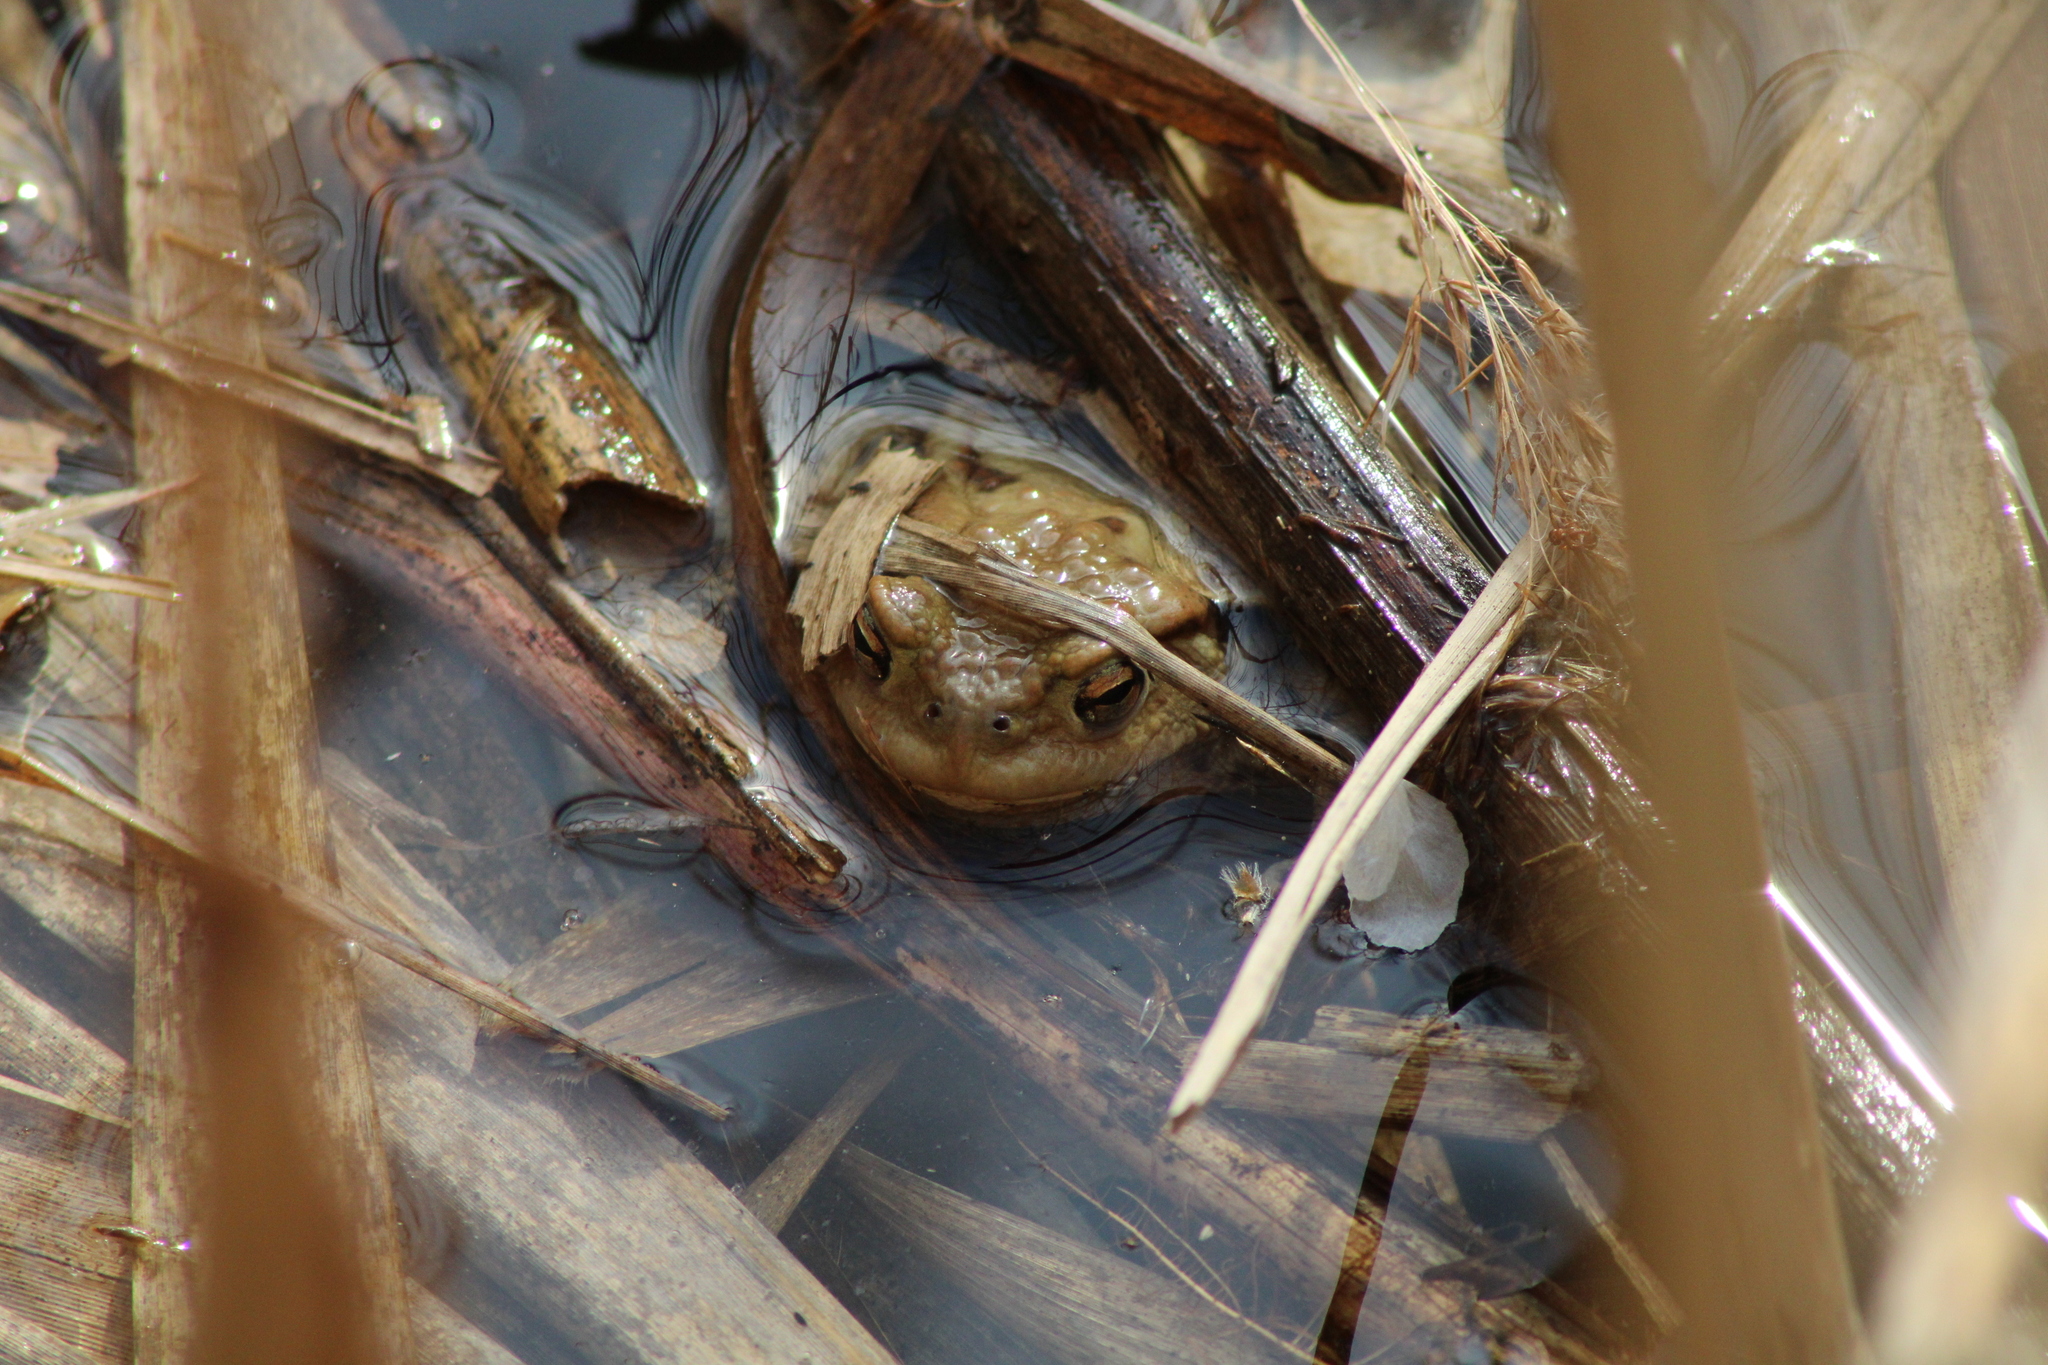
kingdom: Animalia
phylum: Chordata
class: Amphibia
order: Anura
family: Bufonidae
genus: Bufo
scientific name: Bufo bufo
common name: Common toad
